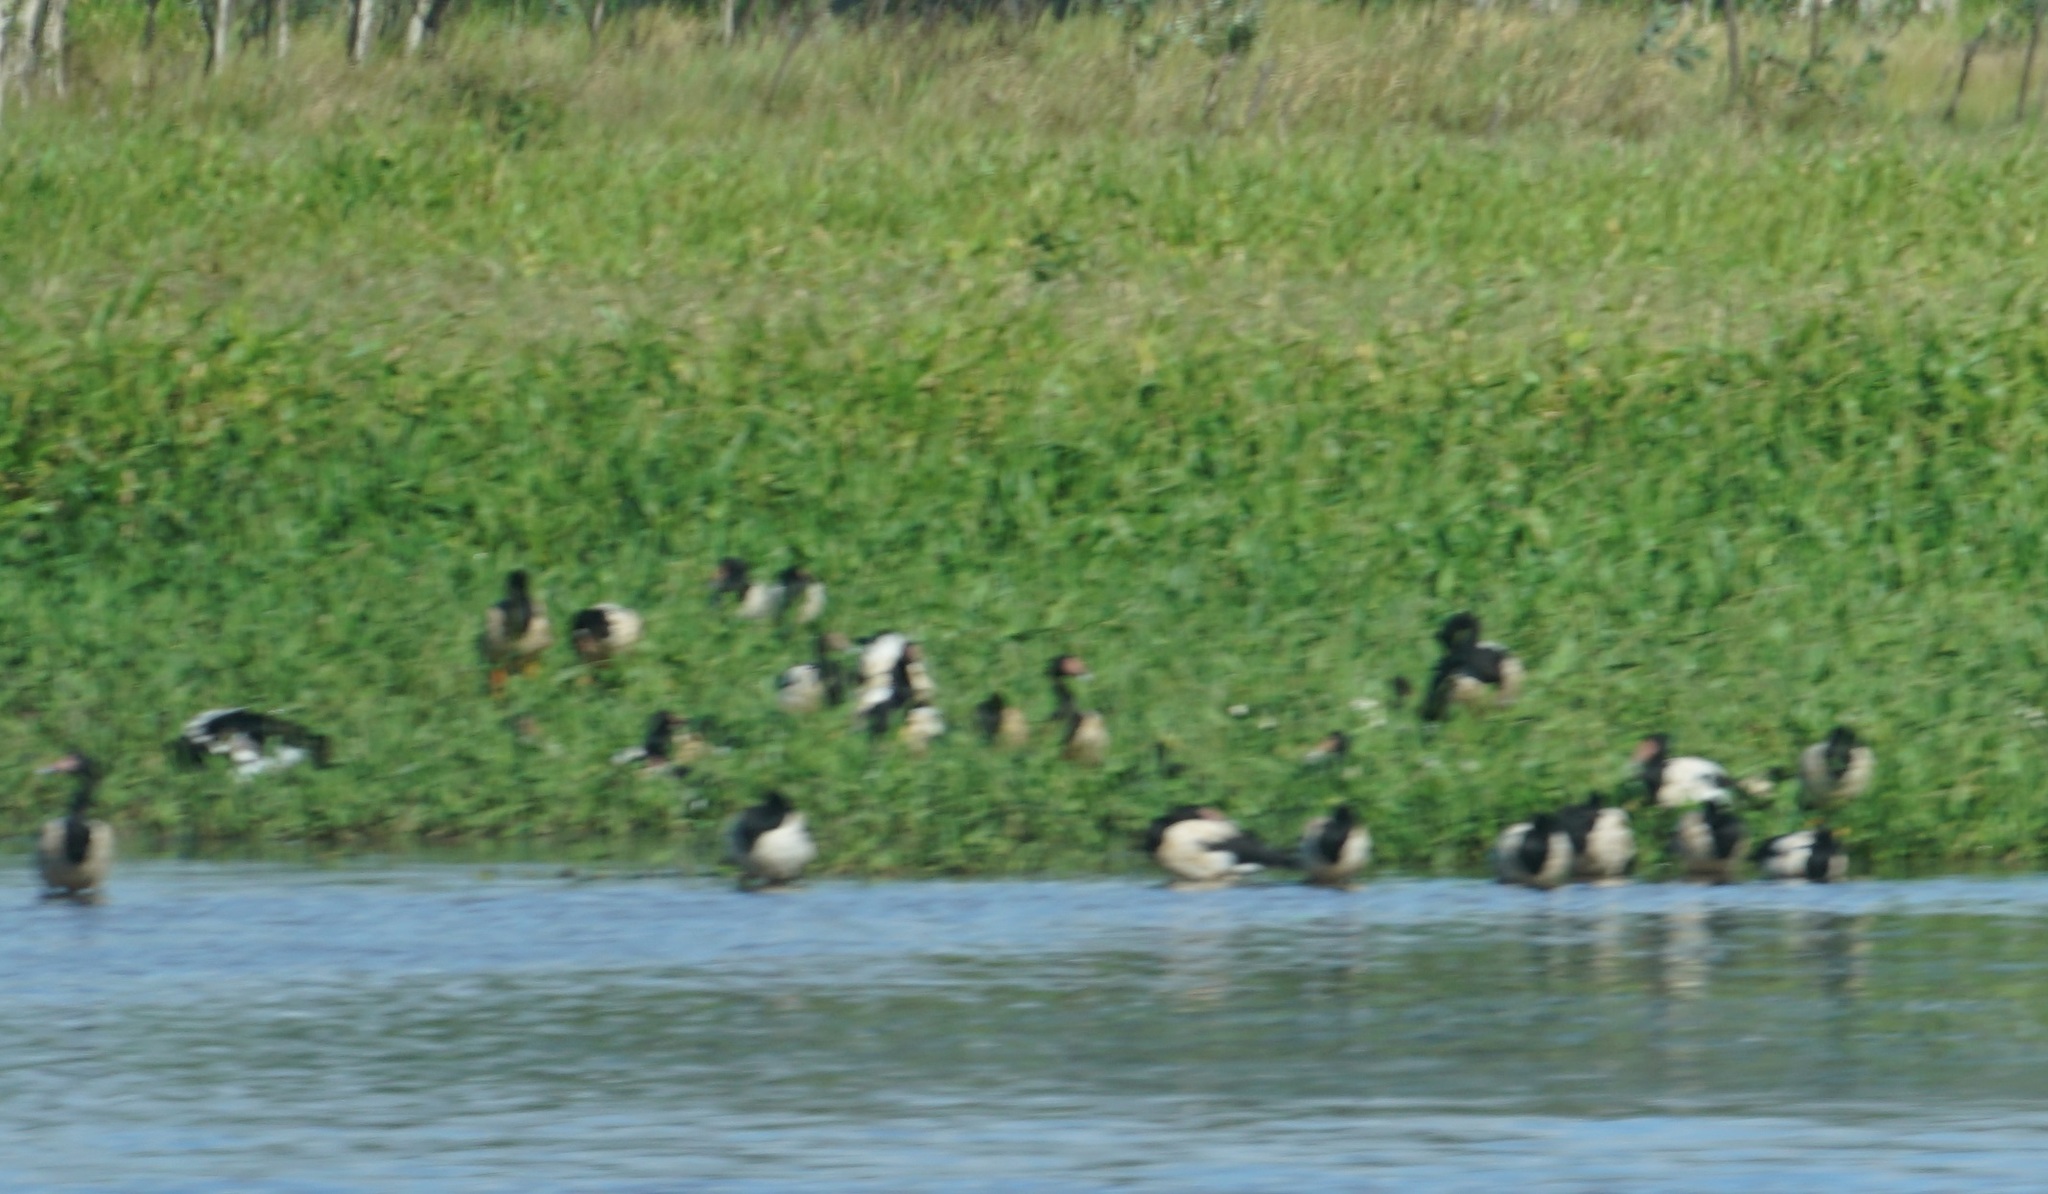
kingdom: Animalia
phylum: Chordata
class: Aves
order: Anseriformes
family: Anseranatidae
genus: Anseranas
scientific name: Anseranas semipalmata
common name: Magpie goose
